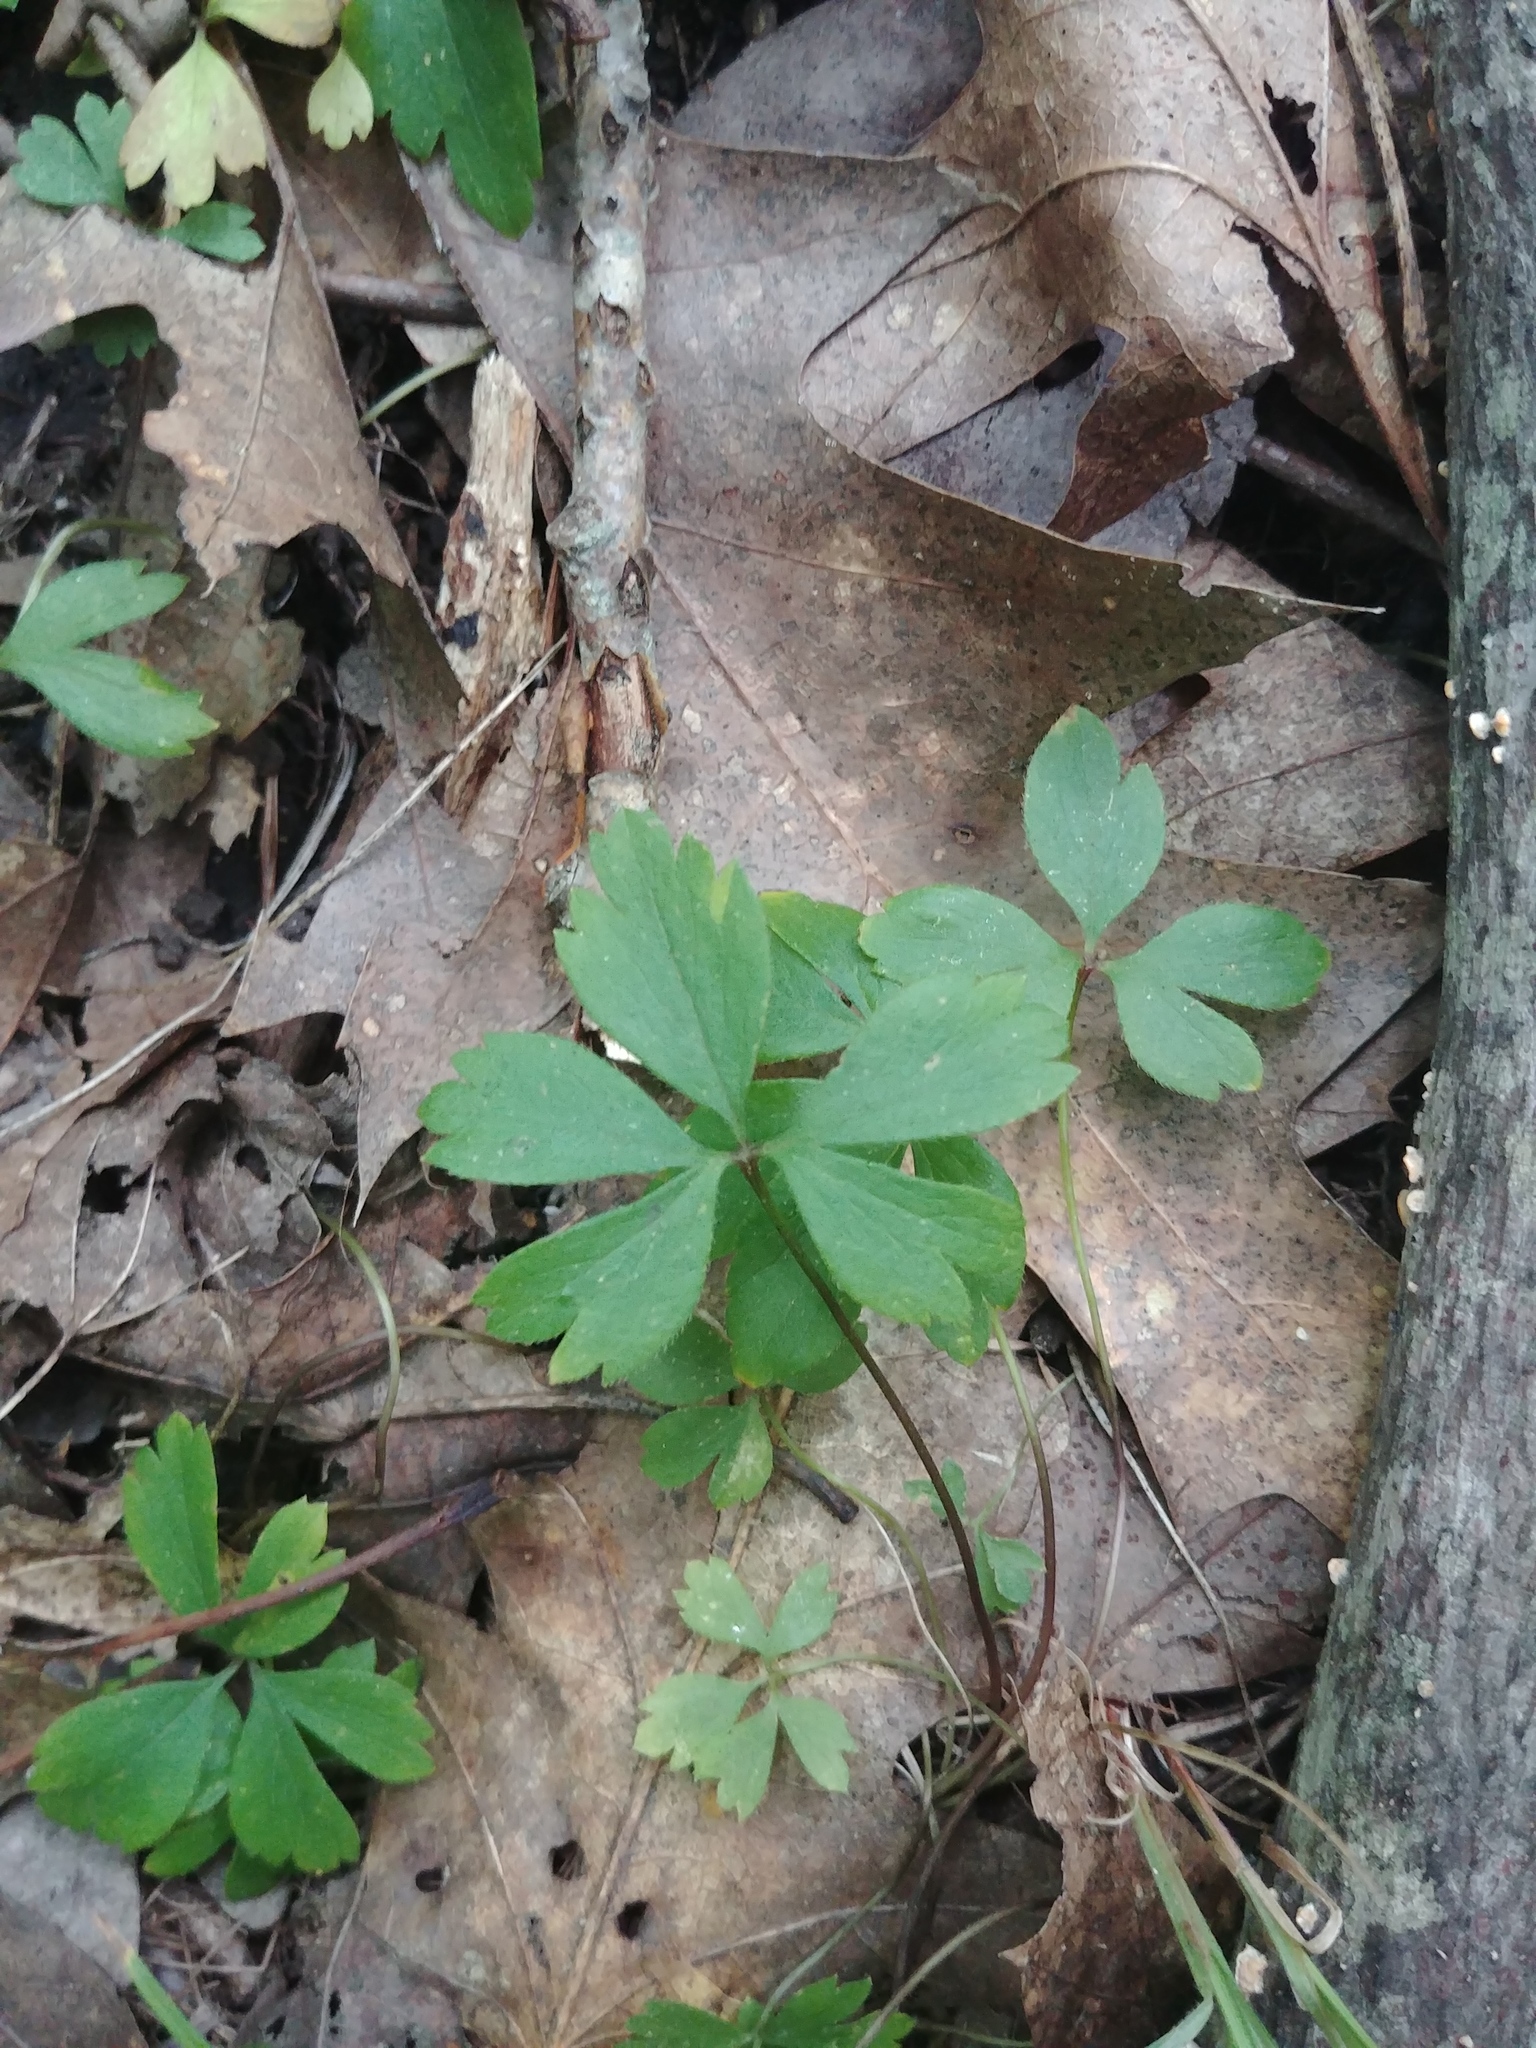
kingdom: Plantae
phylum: Tracheophyta
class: Magnoliopsida
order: Ranunculales
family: Ranunculaceae
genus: Anemone
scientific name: Anemone quinquefolia
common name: Wood anemone
